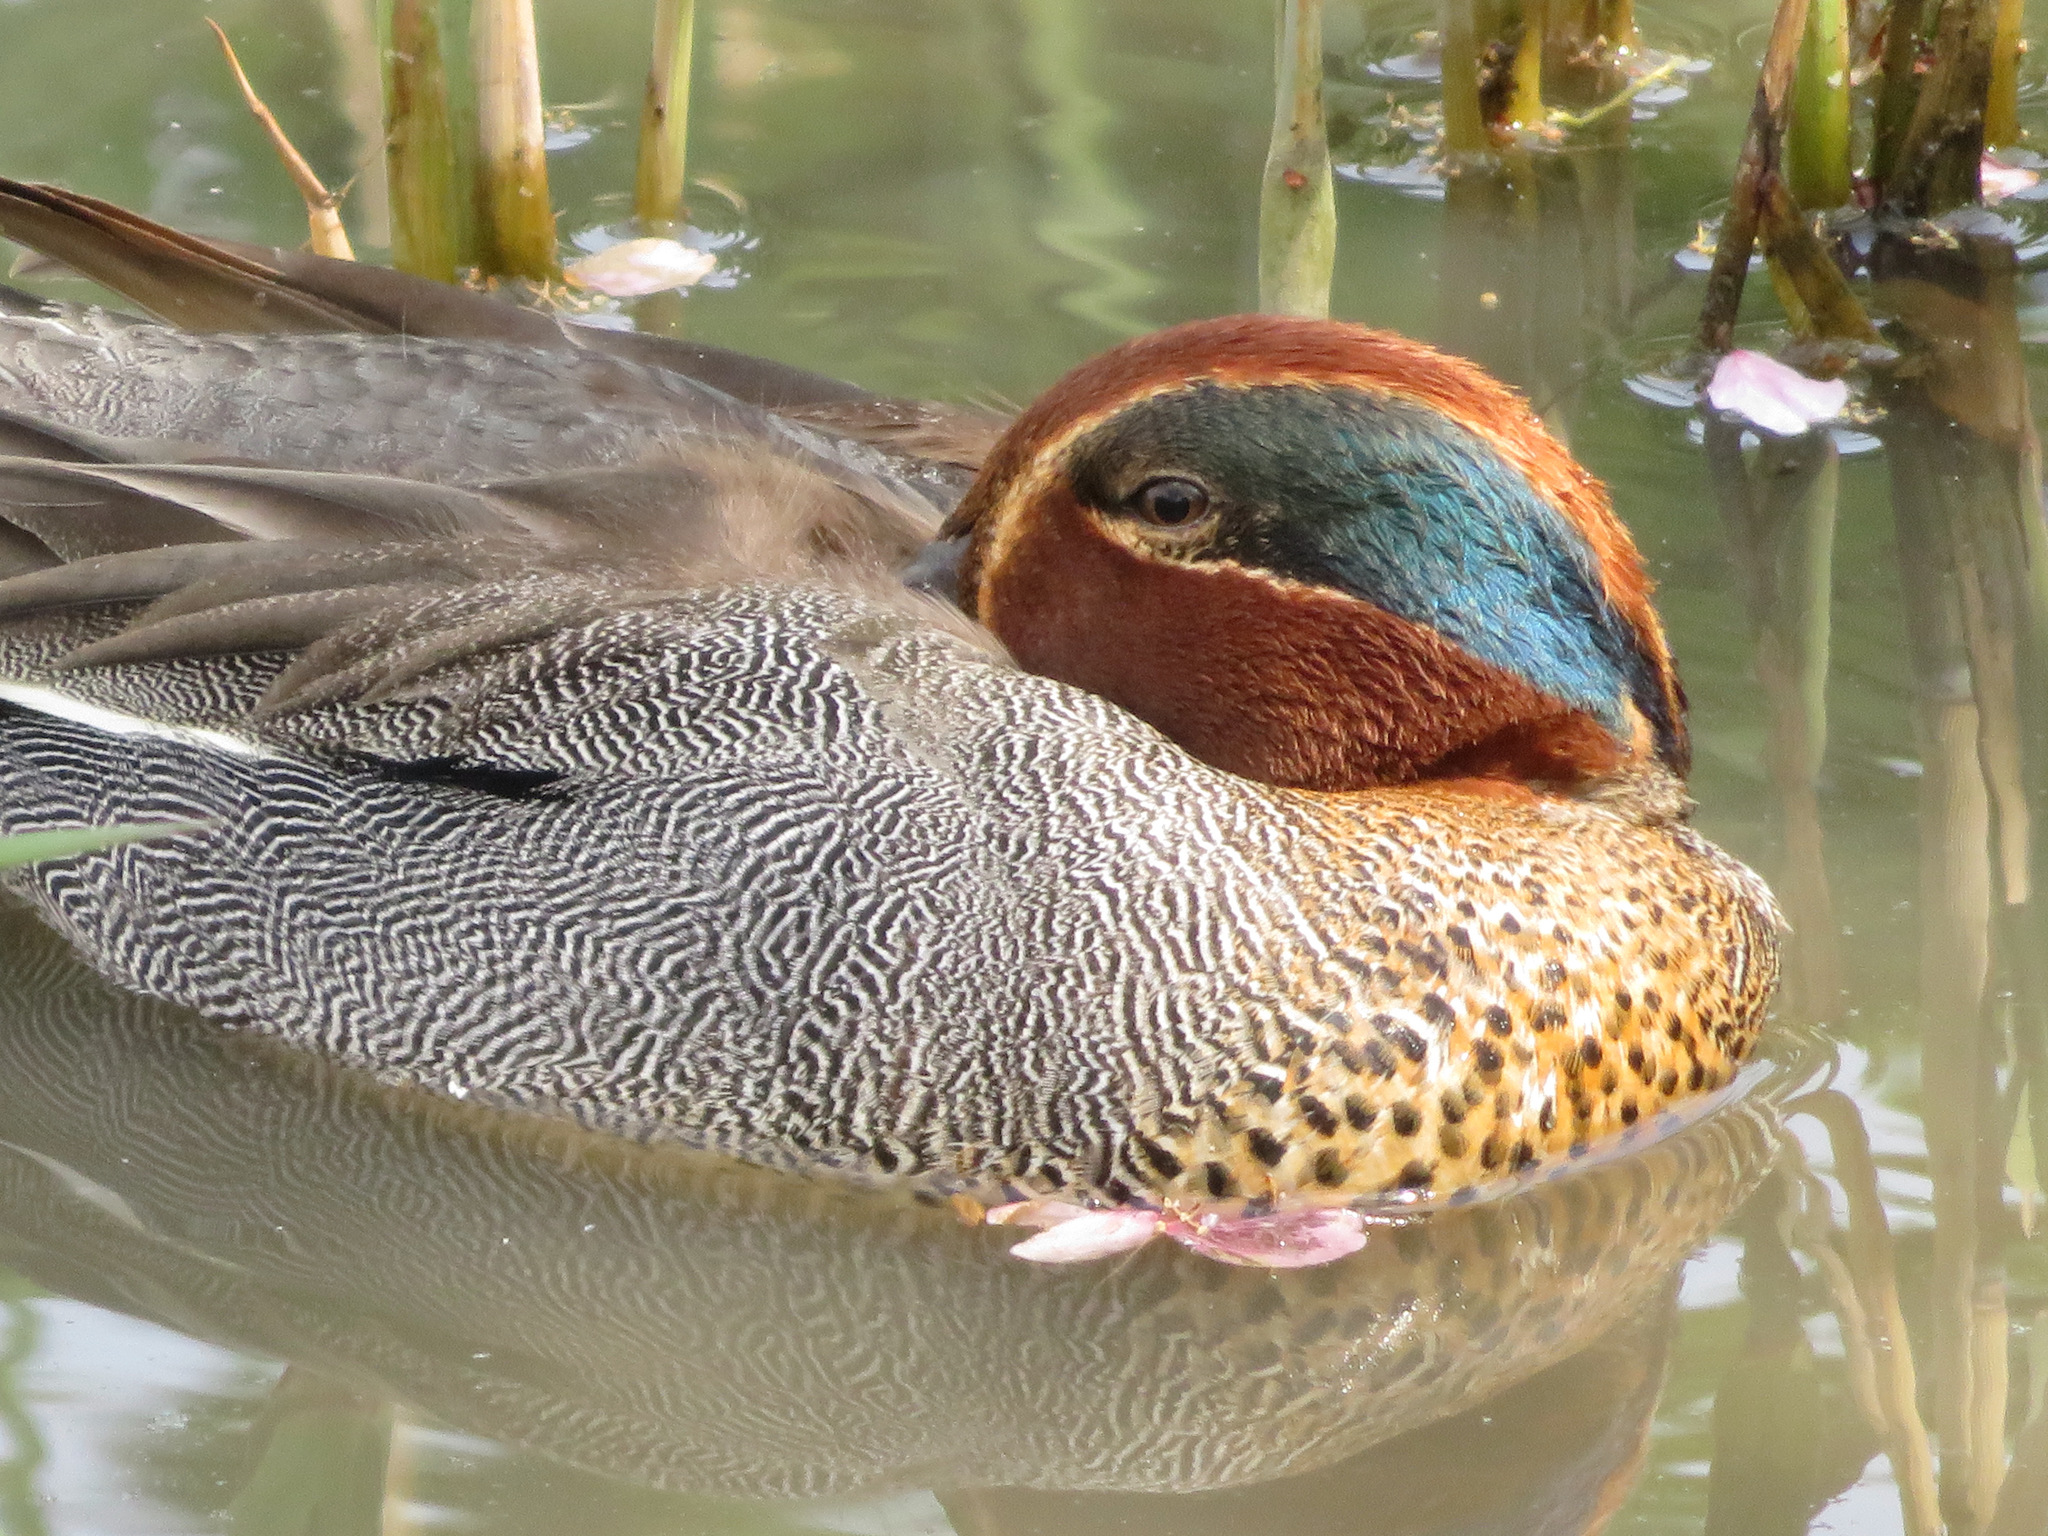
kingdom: Animalia
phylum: Chordata
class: Aves
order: Anseriformes
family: Anatidae
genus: Anas
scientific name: Anas crecca
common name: Eurasian teal
